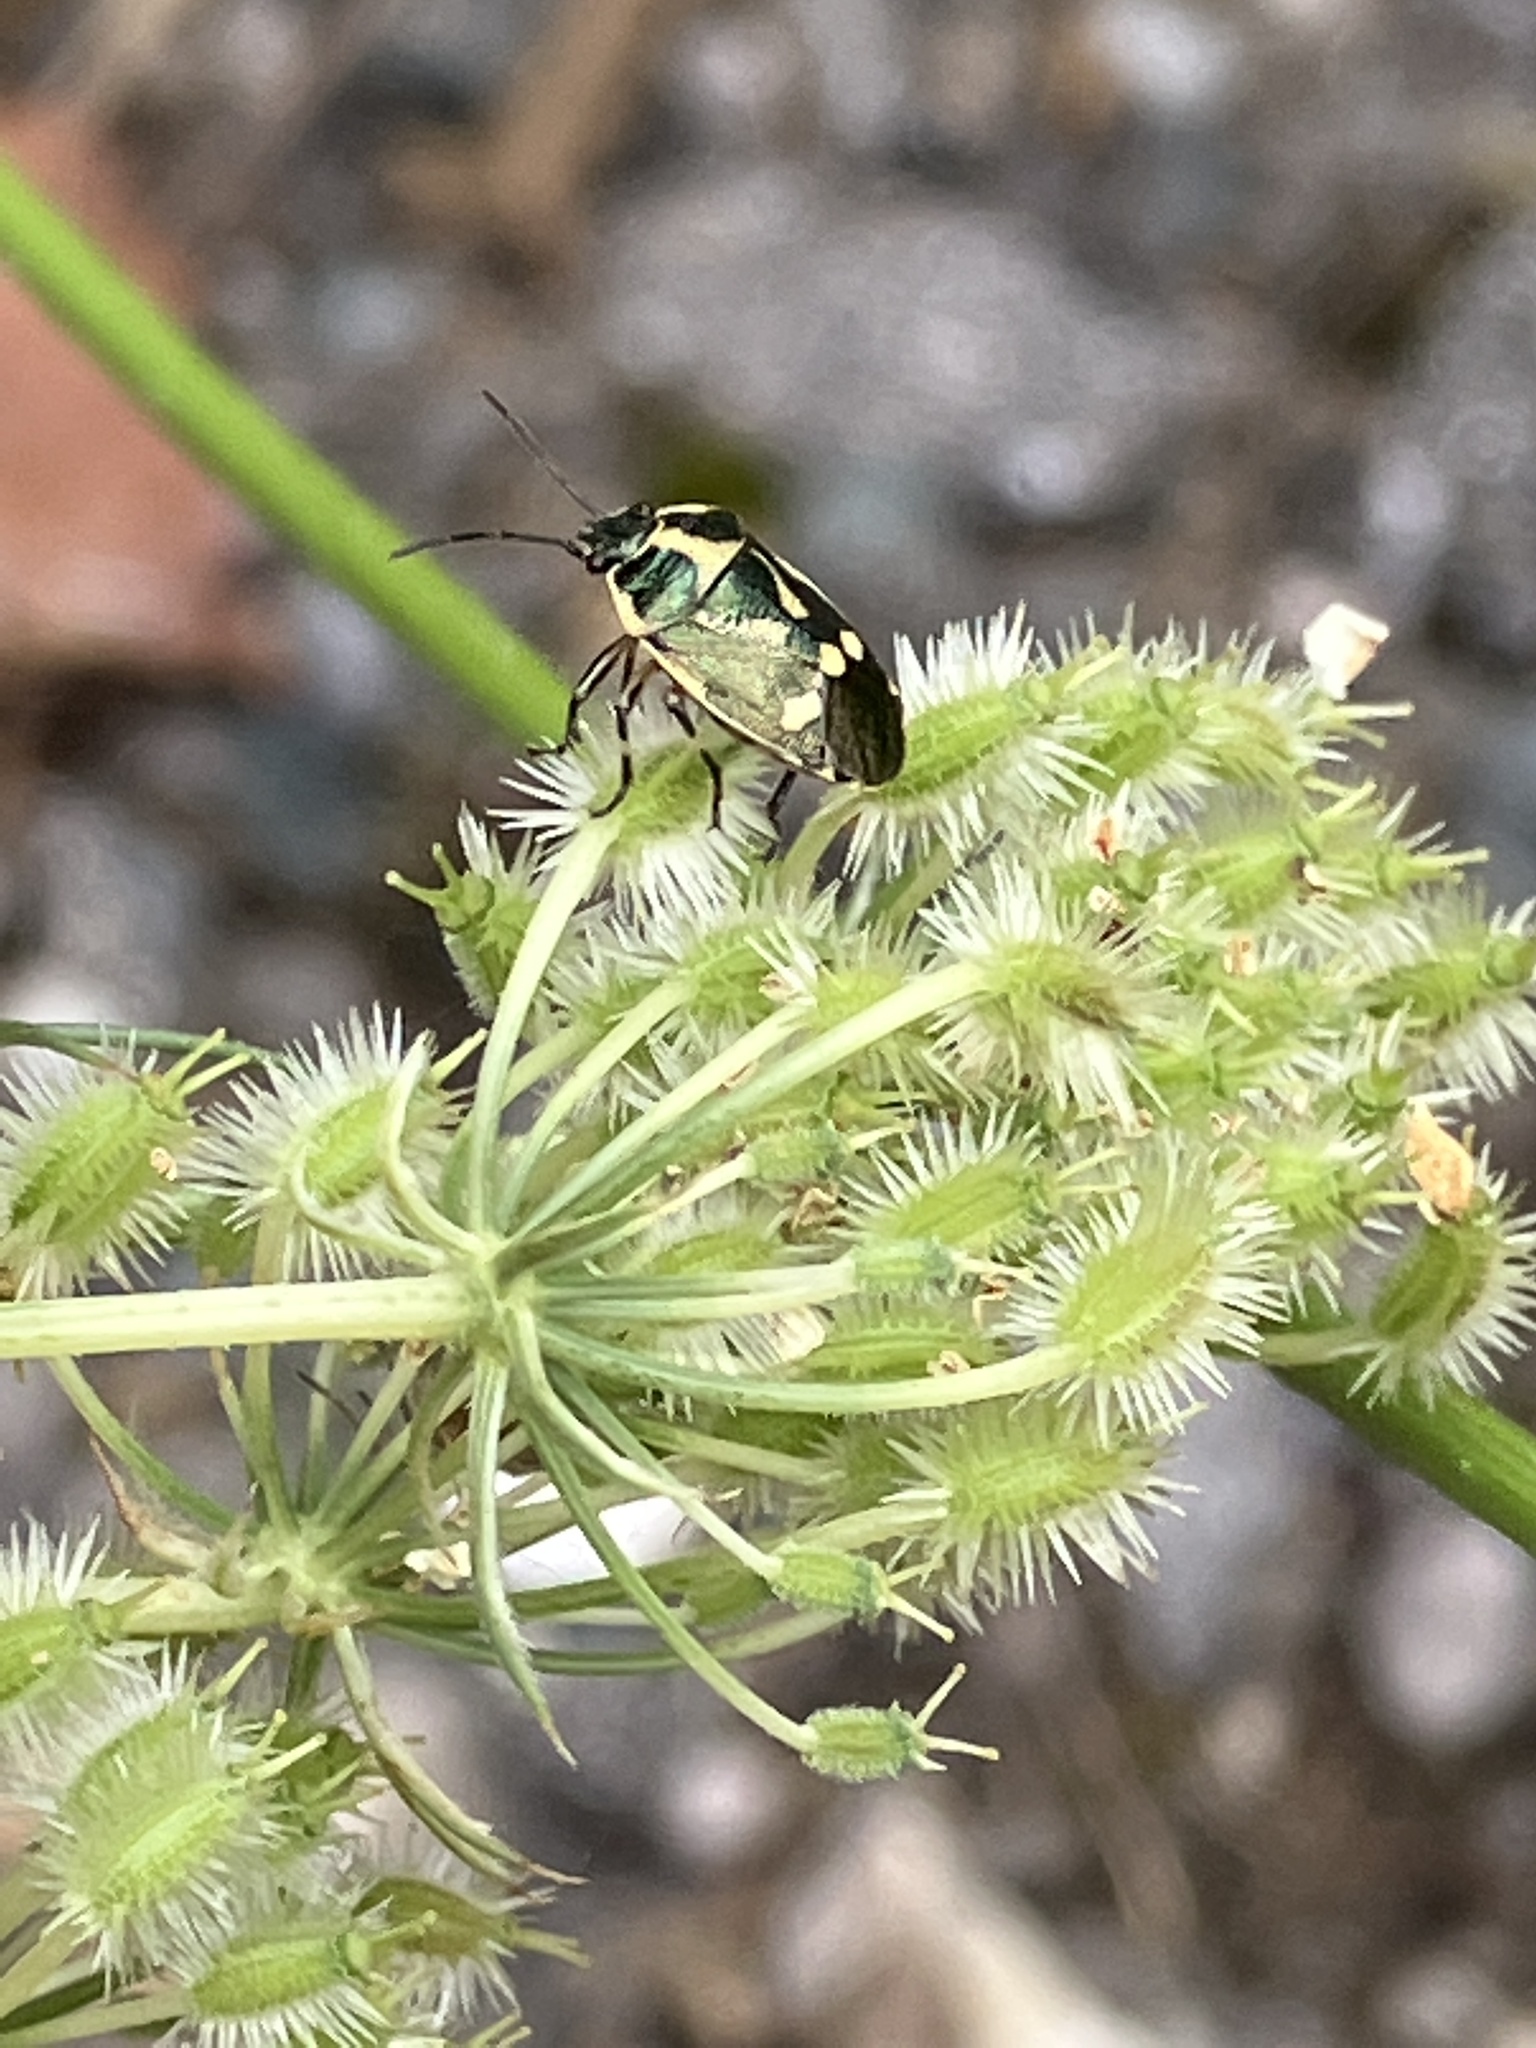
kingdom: Animalia
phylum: Arthropoda
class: Insecta
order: Hemiptera
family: Pentatomidae
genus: Eurydema
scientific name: Eurydema oleracea
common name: Cabbage bug
